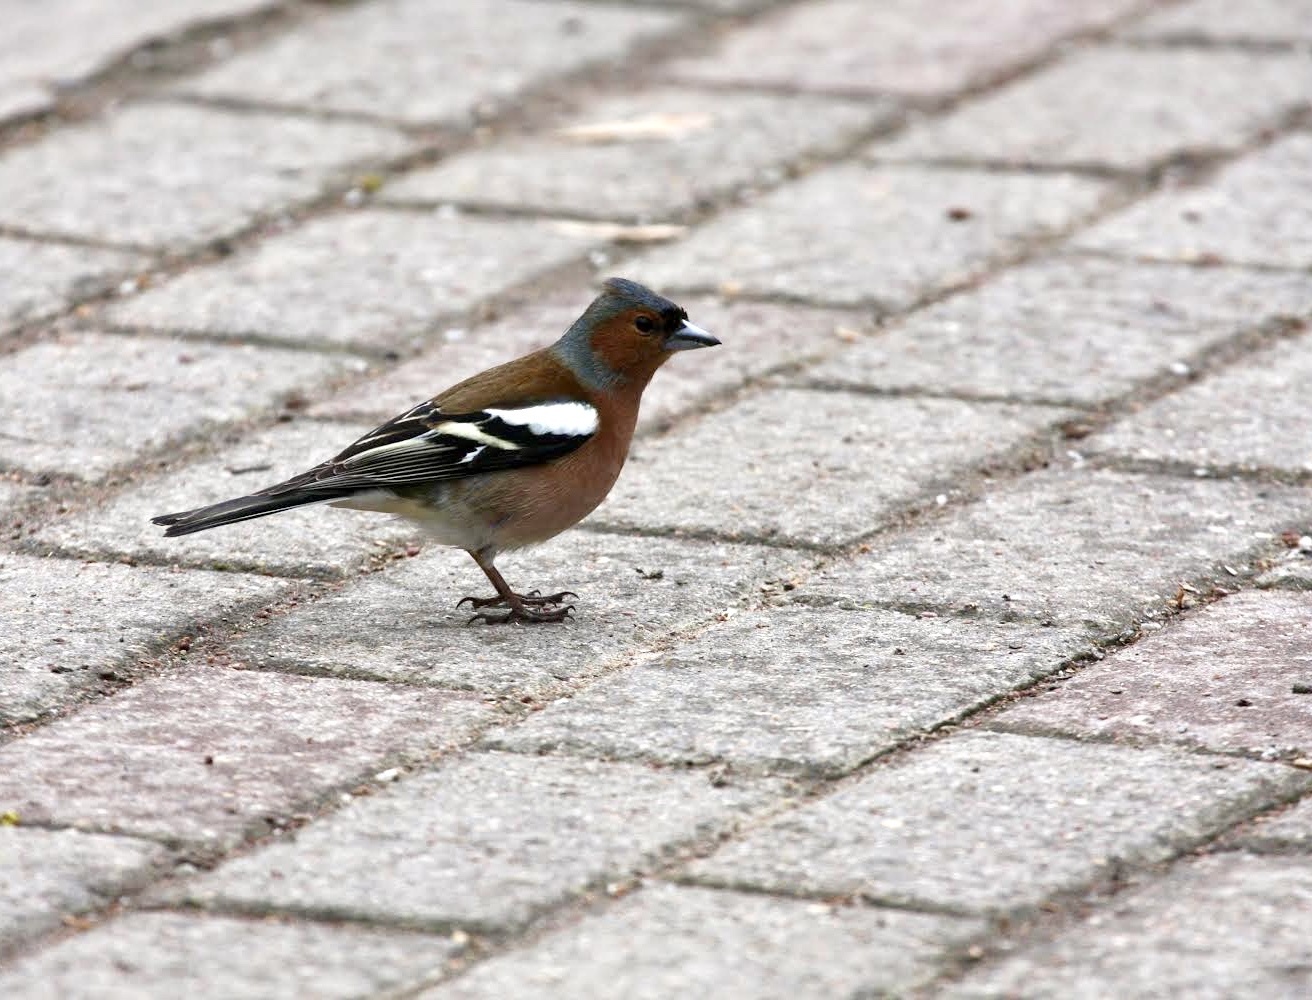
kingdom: Animalia
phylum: Chordata
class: Aves
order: Passeriformes
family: Fringillidae
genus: Fringilla
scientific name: Fringilla coelebs
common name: Common chaffinch
